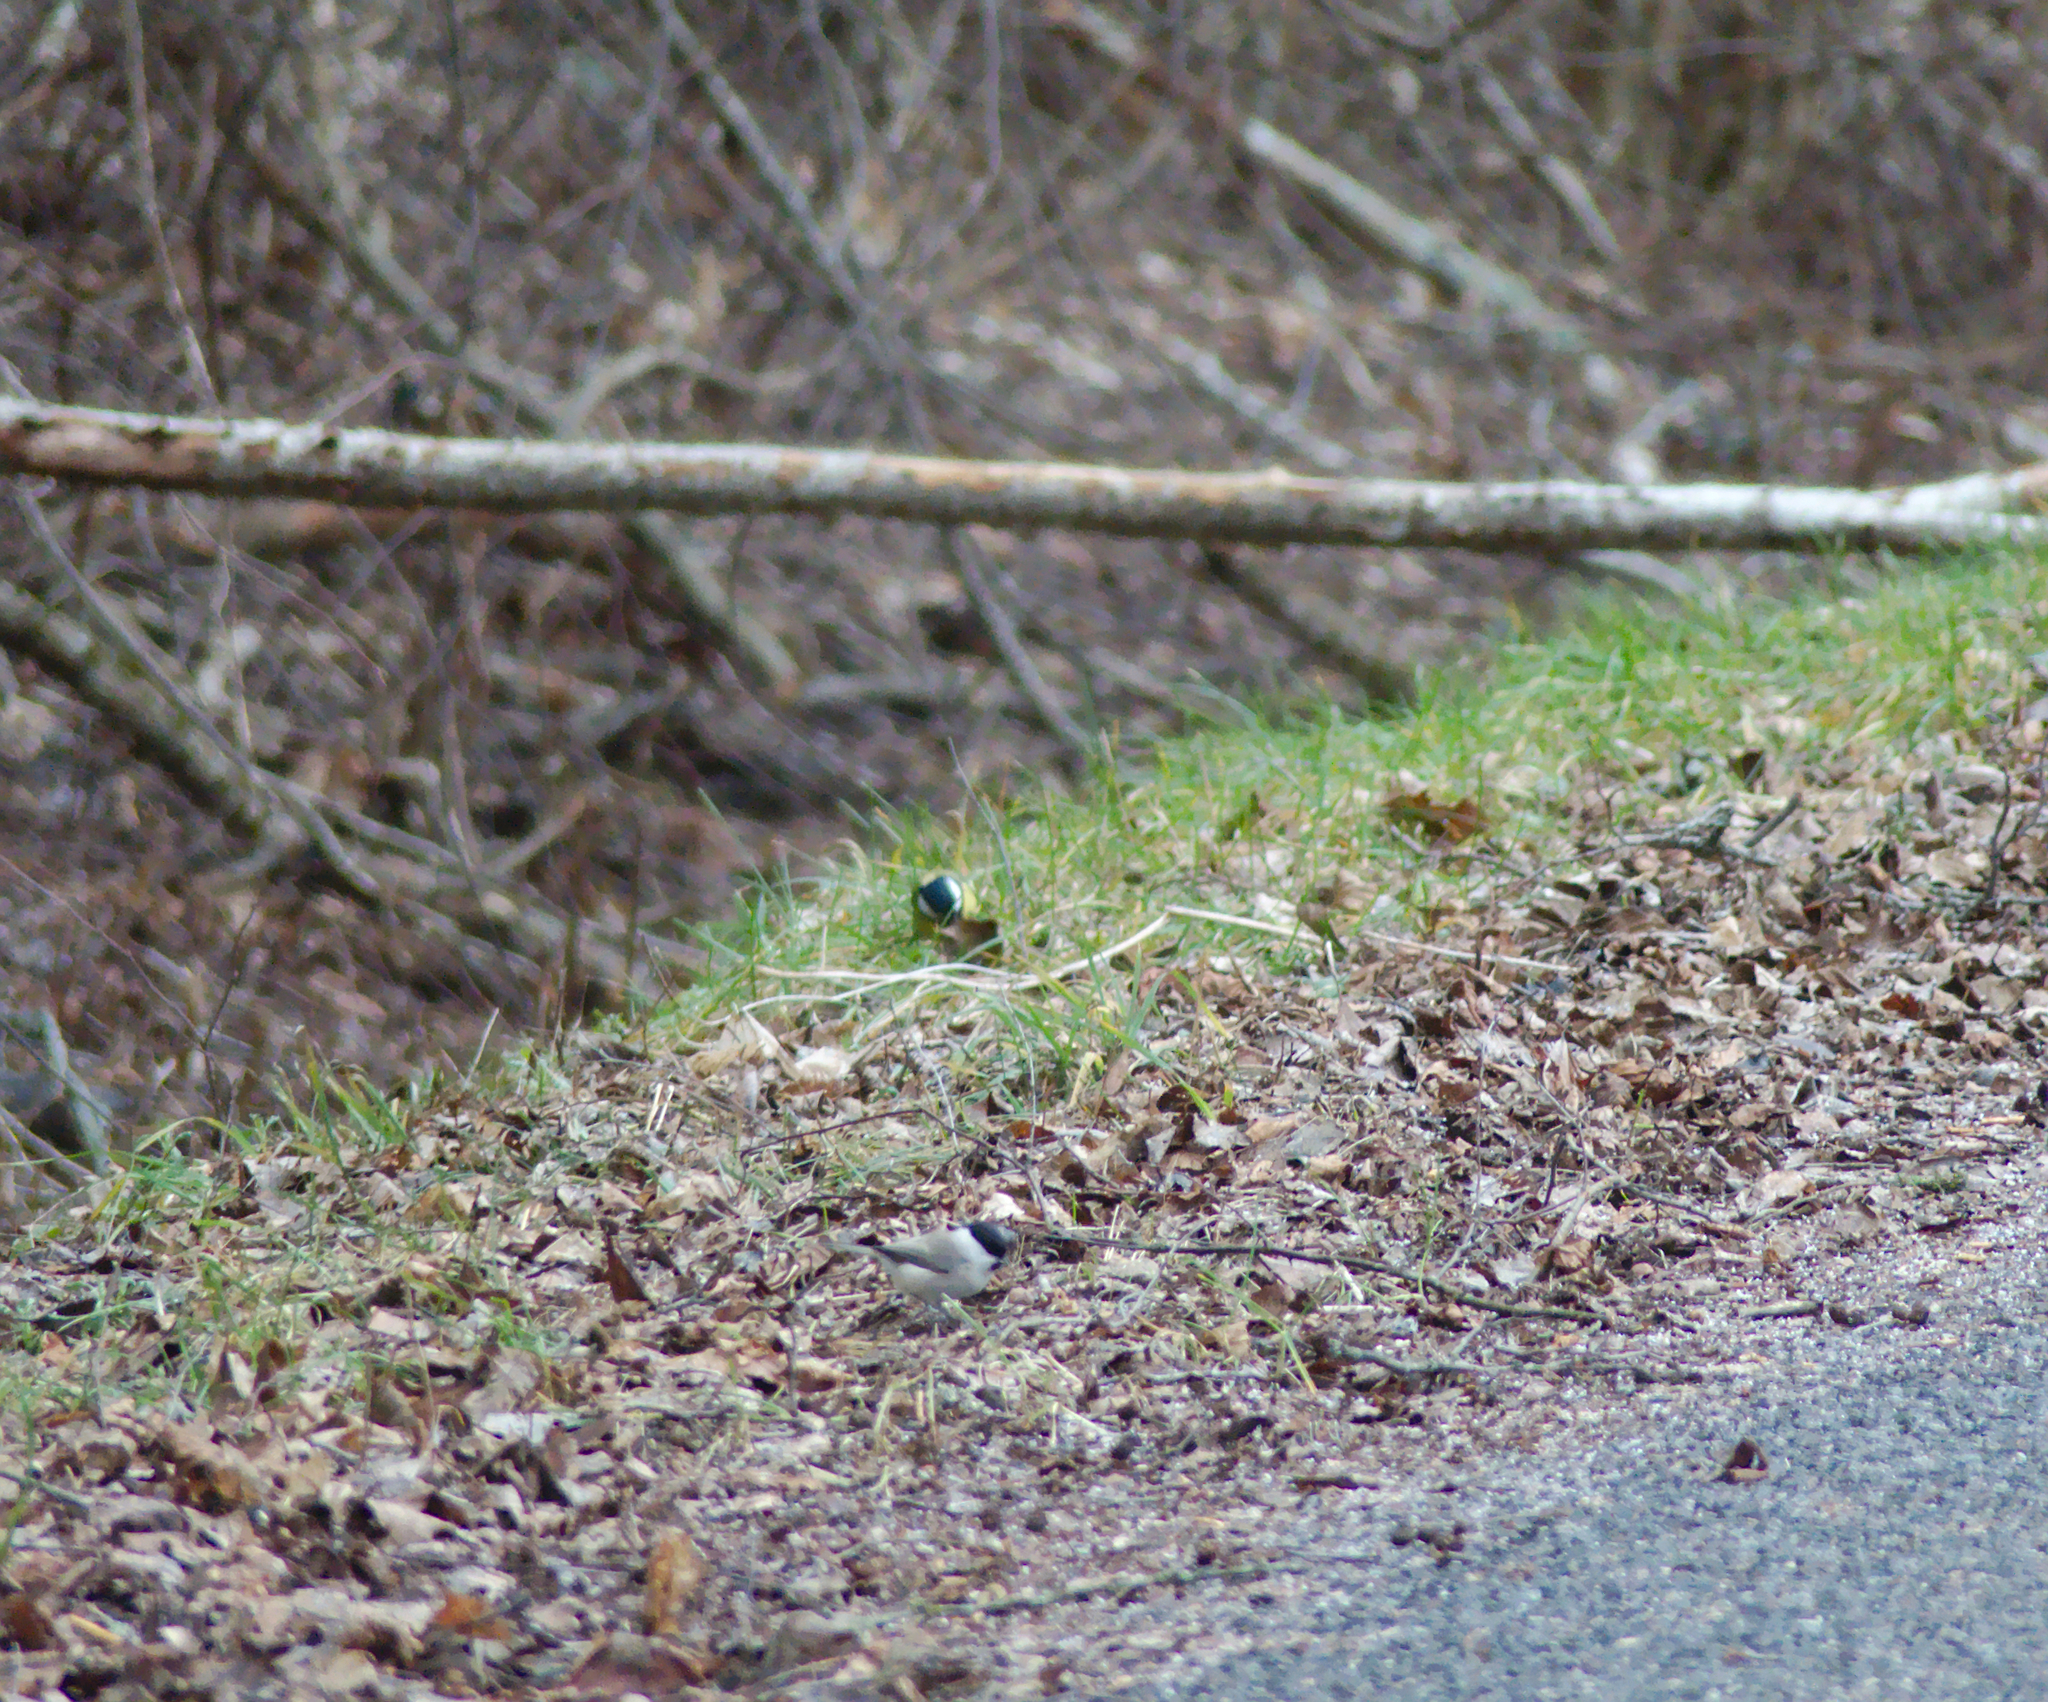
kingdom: Animalia
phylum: Chordata
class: Aves
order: Passeriformes
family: Paridae
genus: Parus
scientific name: Parus major
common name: Great tit
